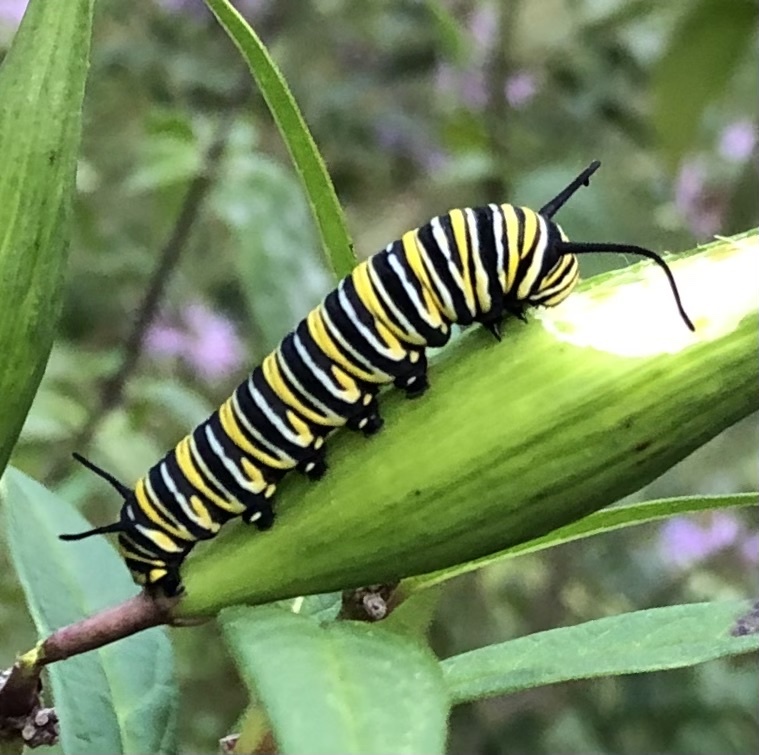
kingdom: Animalia
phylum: Arthropoda
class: Insecta
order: Lepidoptera
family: Nymphalidae
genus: Danaus
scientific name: Danaus plexippus
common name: Monarch
